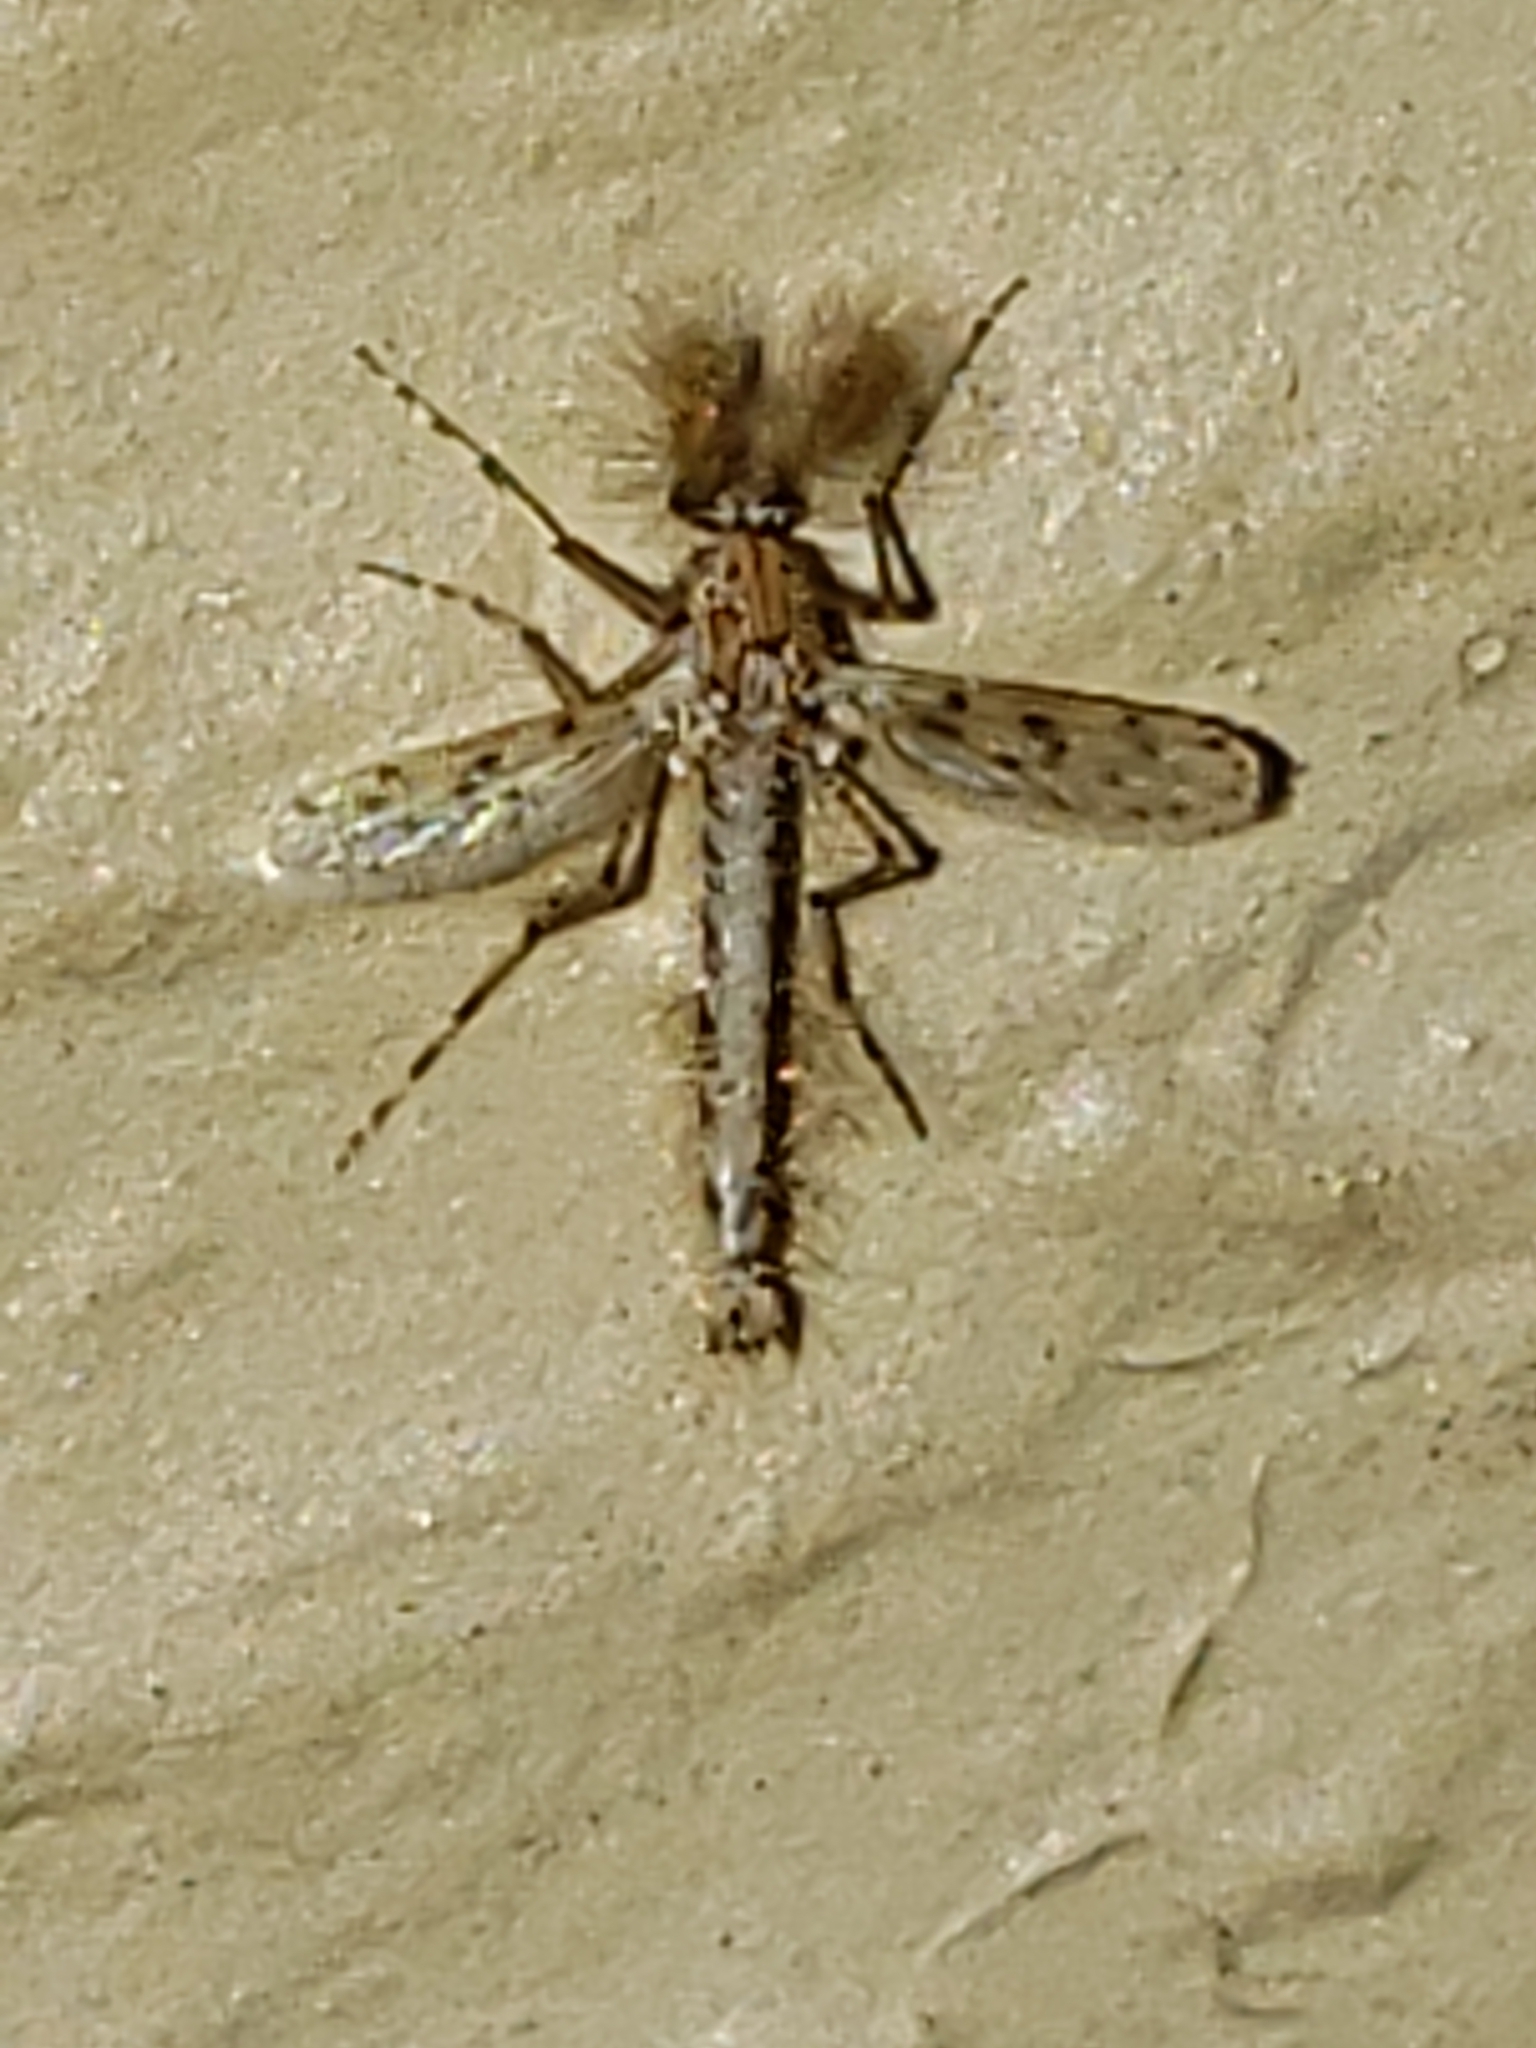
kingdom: Animalia
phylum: Arthropoda
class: Insecta
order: Diptera
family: Chaoboridae
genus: Chaoborus
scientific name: Chaoborus punctipennis
